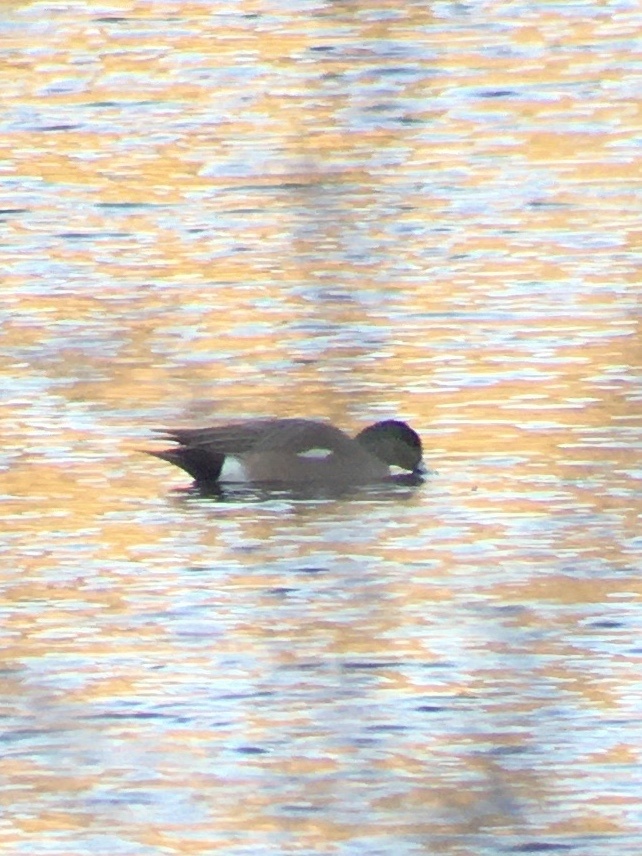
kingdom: Animalia
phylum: Chordata
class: Aves
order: Anseriformes
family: Anatidae
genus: Mareca
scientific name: Mareca americana
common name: American wigeon
